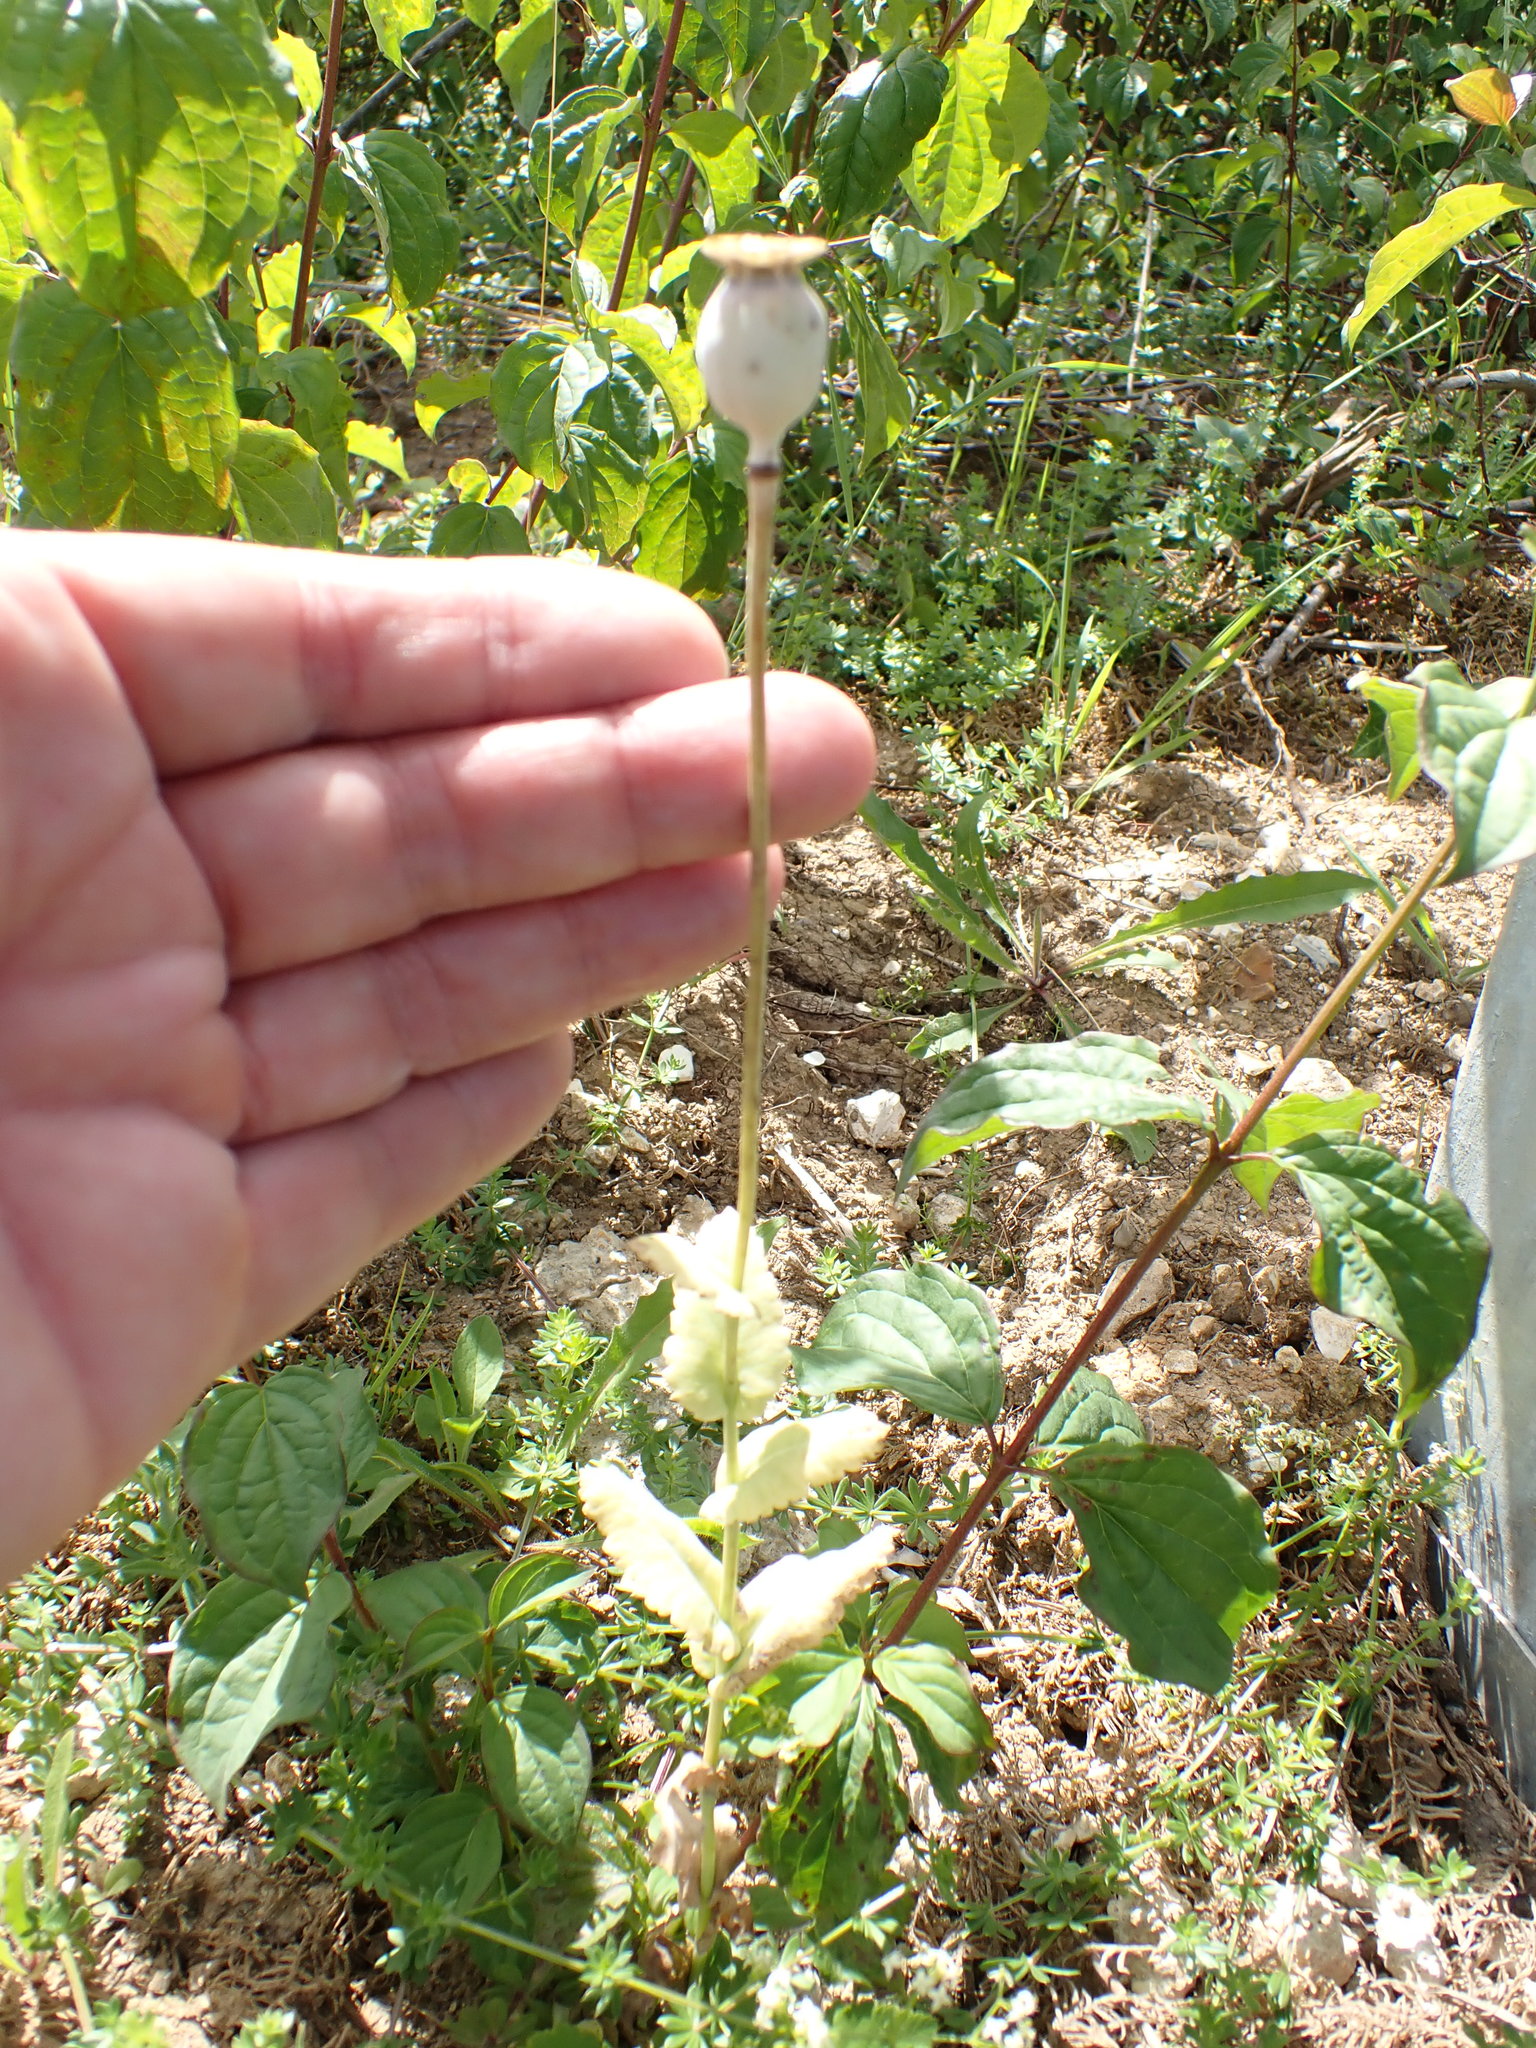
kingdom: Plantae
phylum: Tracheophyta
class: Magnoliopsida
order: Ranunculales
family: Papaveraceae
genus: Papaver
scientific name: Papaver somniferum
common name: Opium poppy
